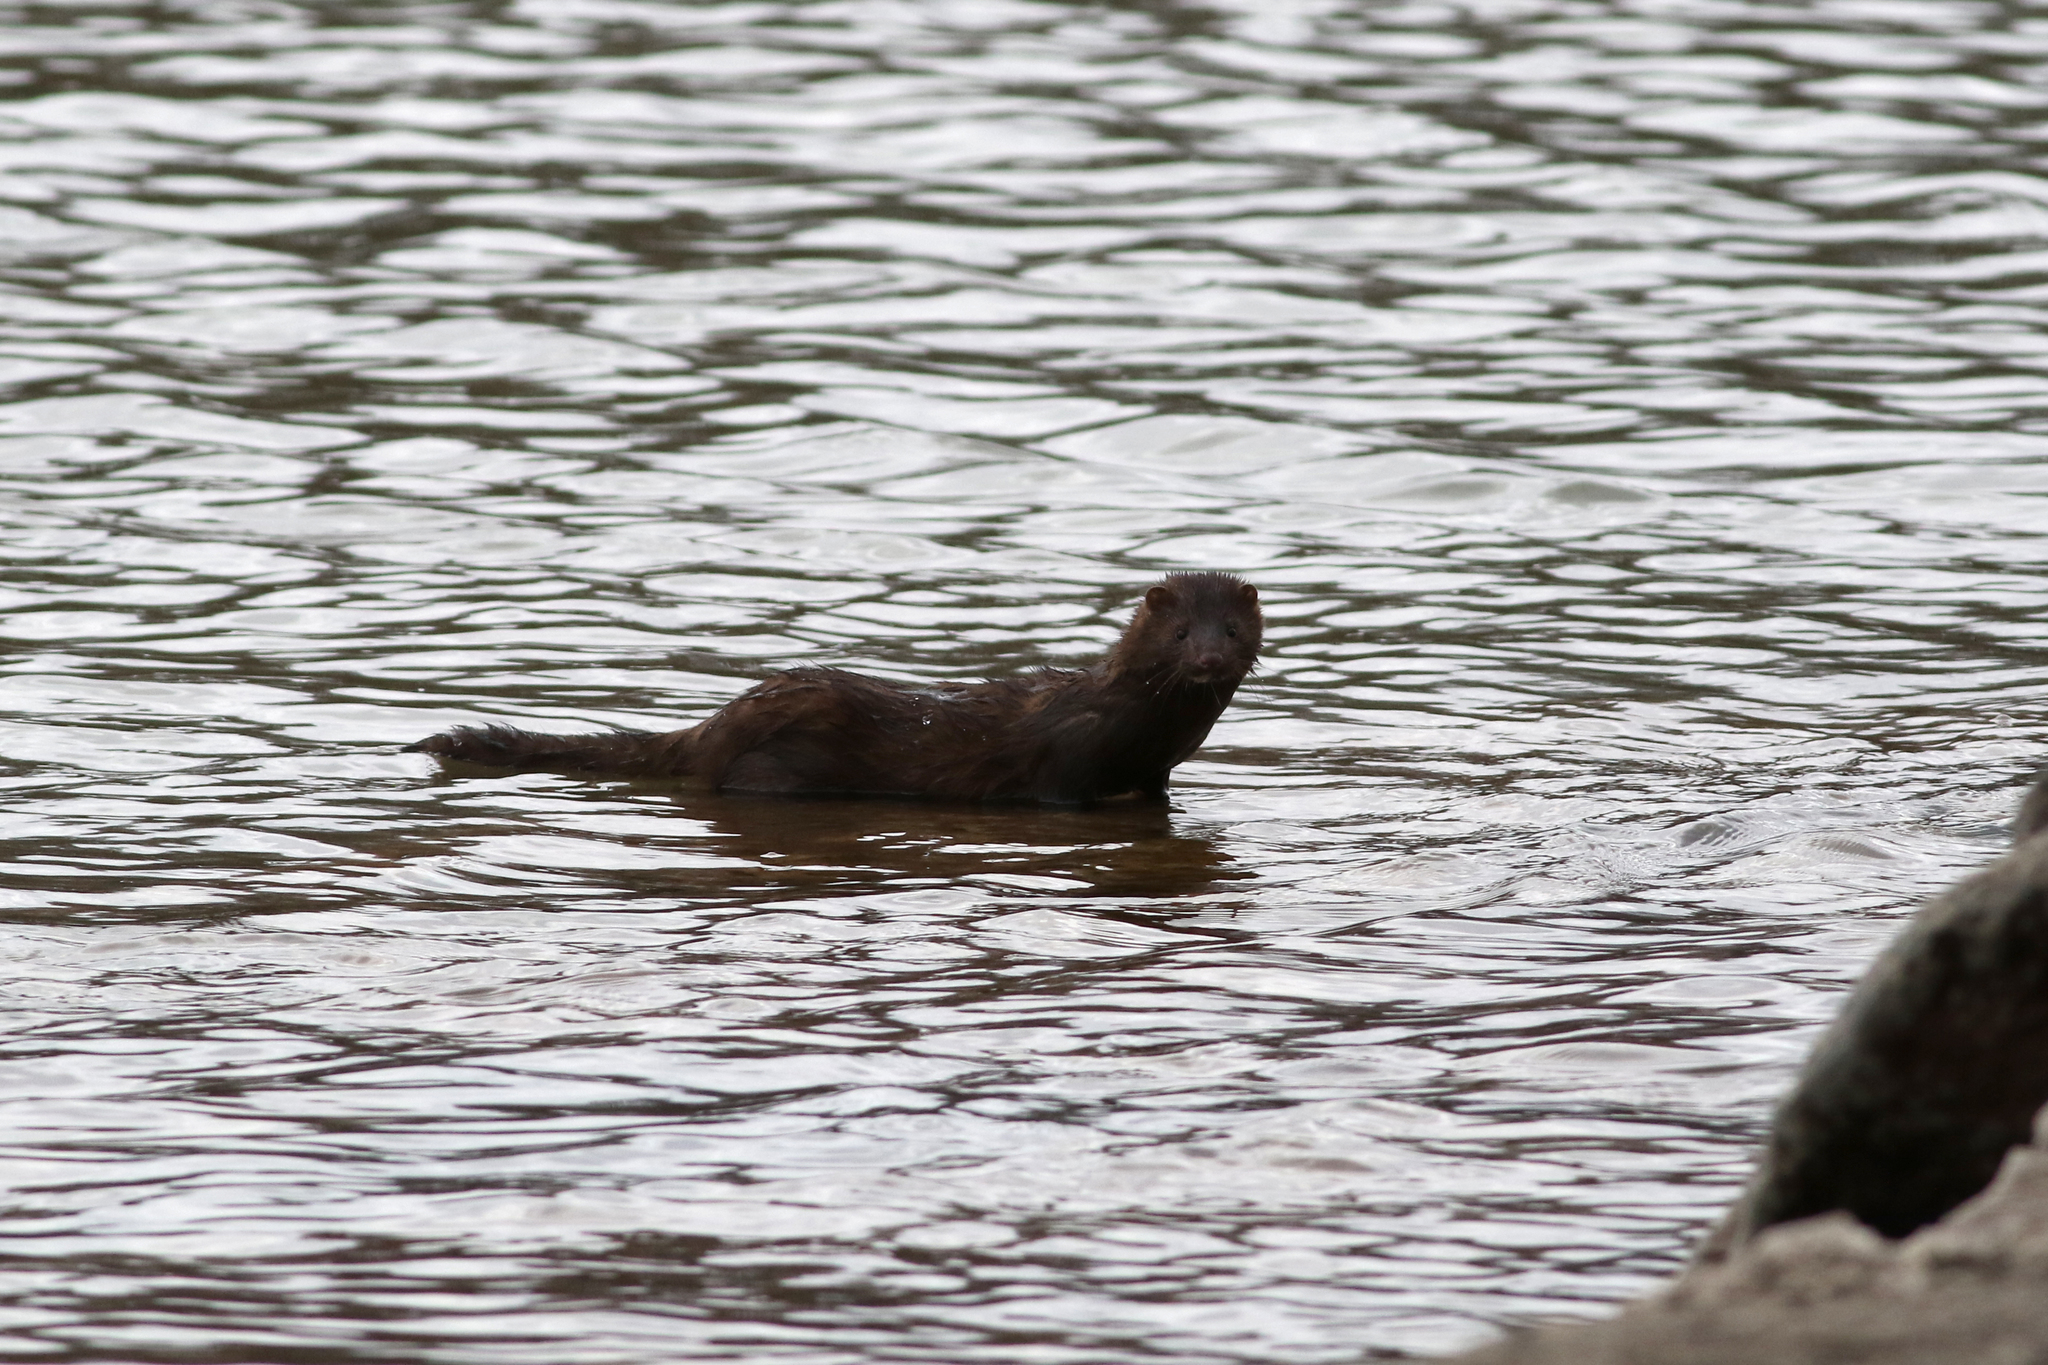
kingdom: Animalia
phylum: Chordata
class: Mammalia
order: Carnivora
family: Mustelidae
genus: Mustela
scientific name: Mustela
